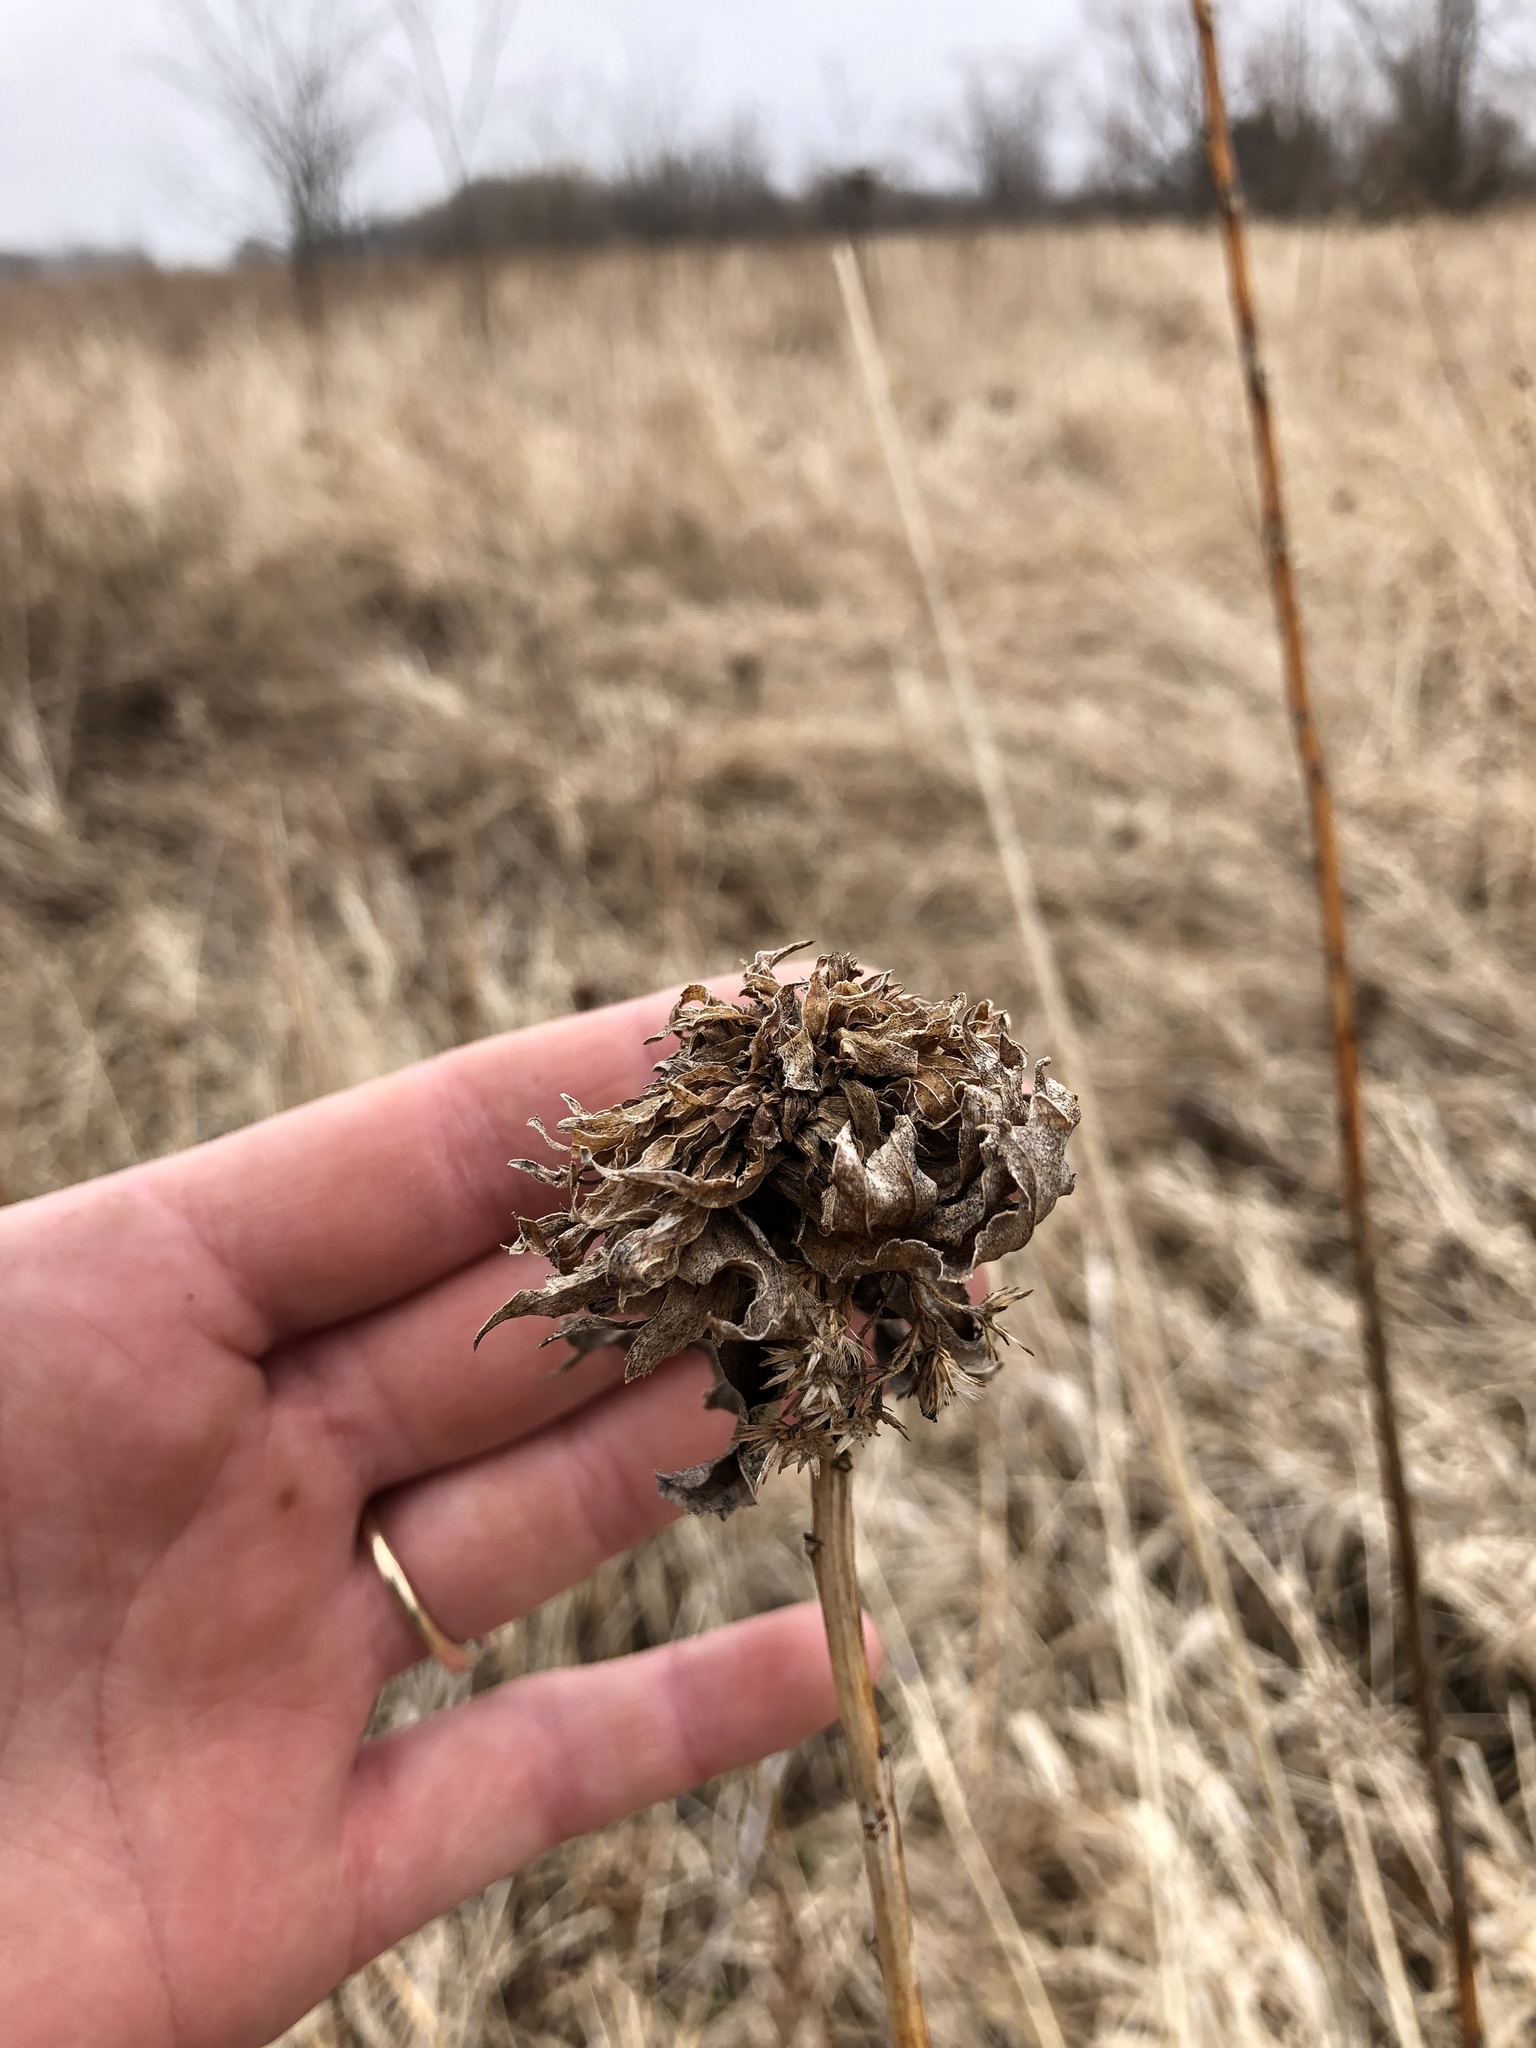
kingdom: Animalia
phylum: Arthropoda
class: Insecta
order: Diptera
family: Cecidomyiidae
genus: Rhopalomyia
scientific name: Rhopalomyia solidaginis
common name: Goldenrod bunch gall midge
